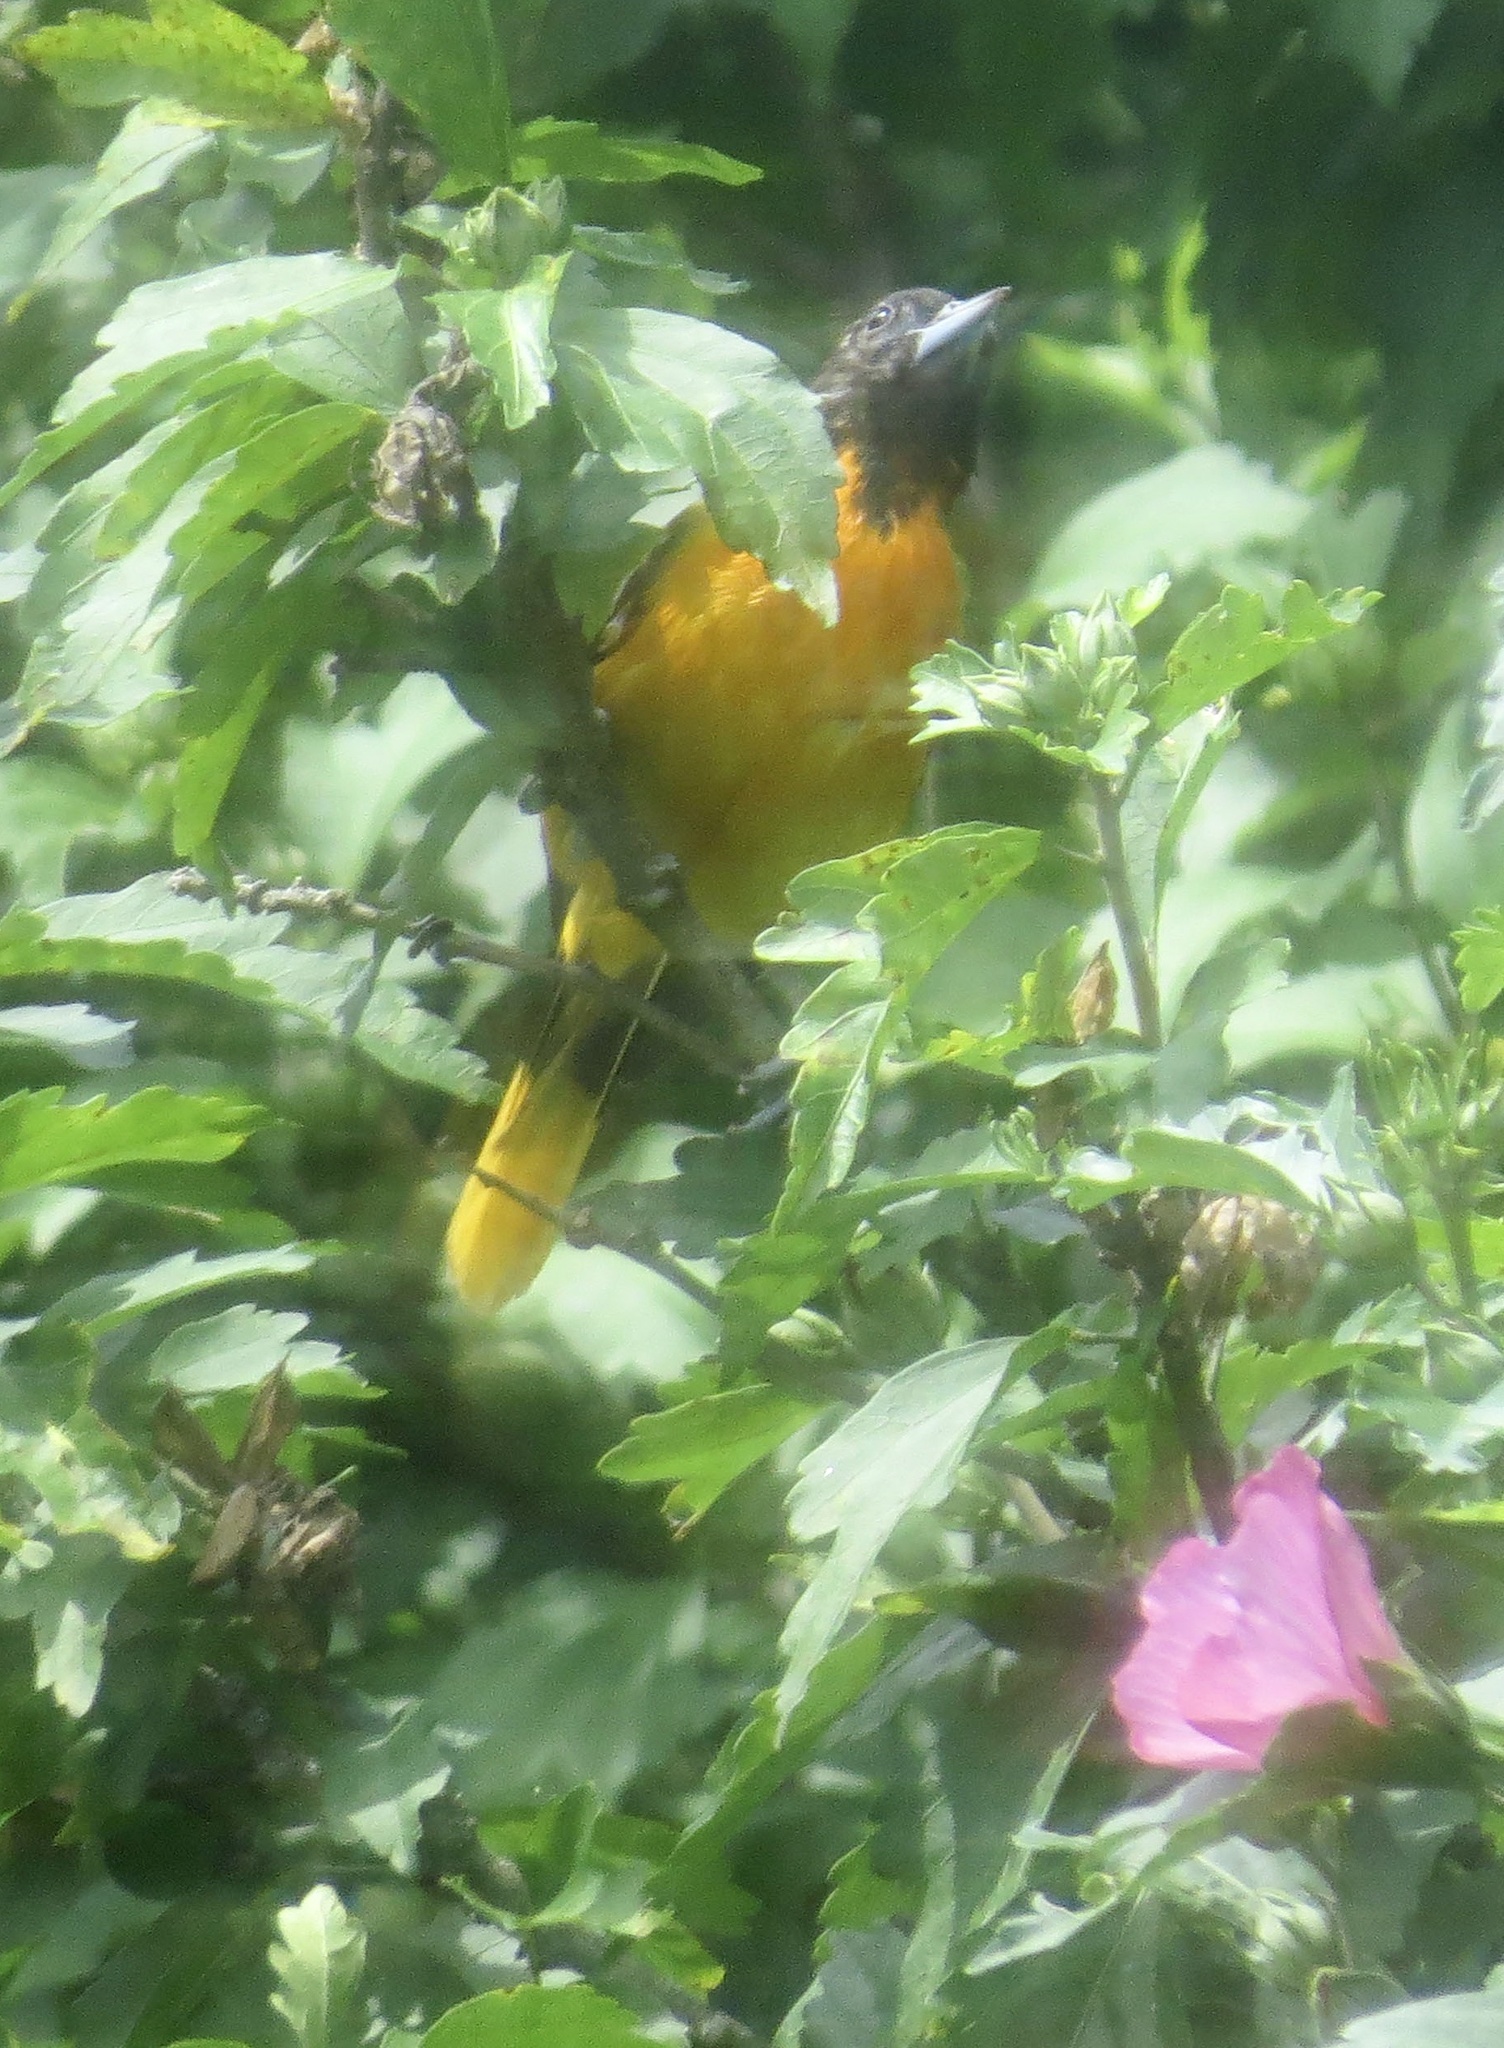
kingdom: Animalia
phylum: Chordata
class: Aves
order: Passeriformes
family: Icteridae
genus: Icterus
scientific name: Icterus galbula
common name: Baltimore oriole
